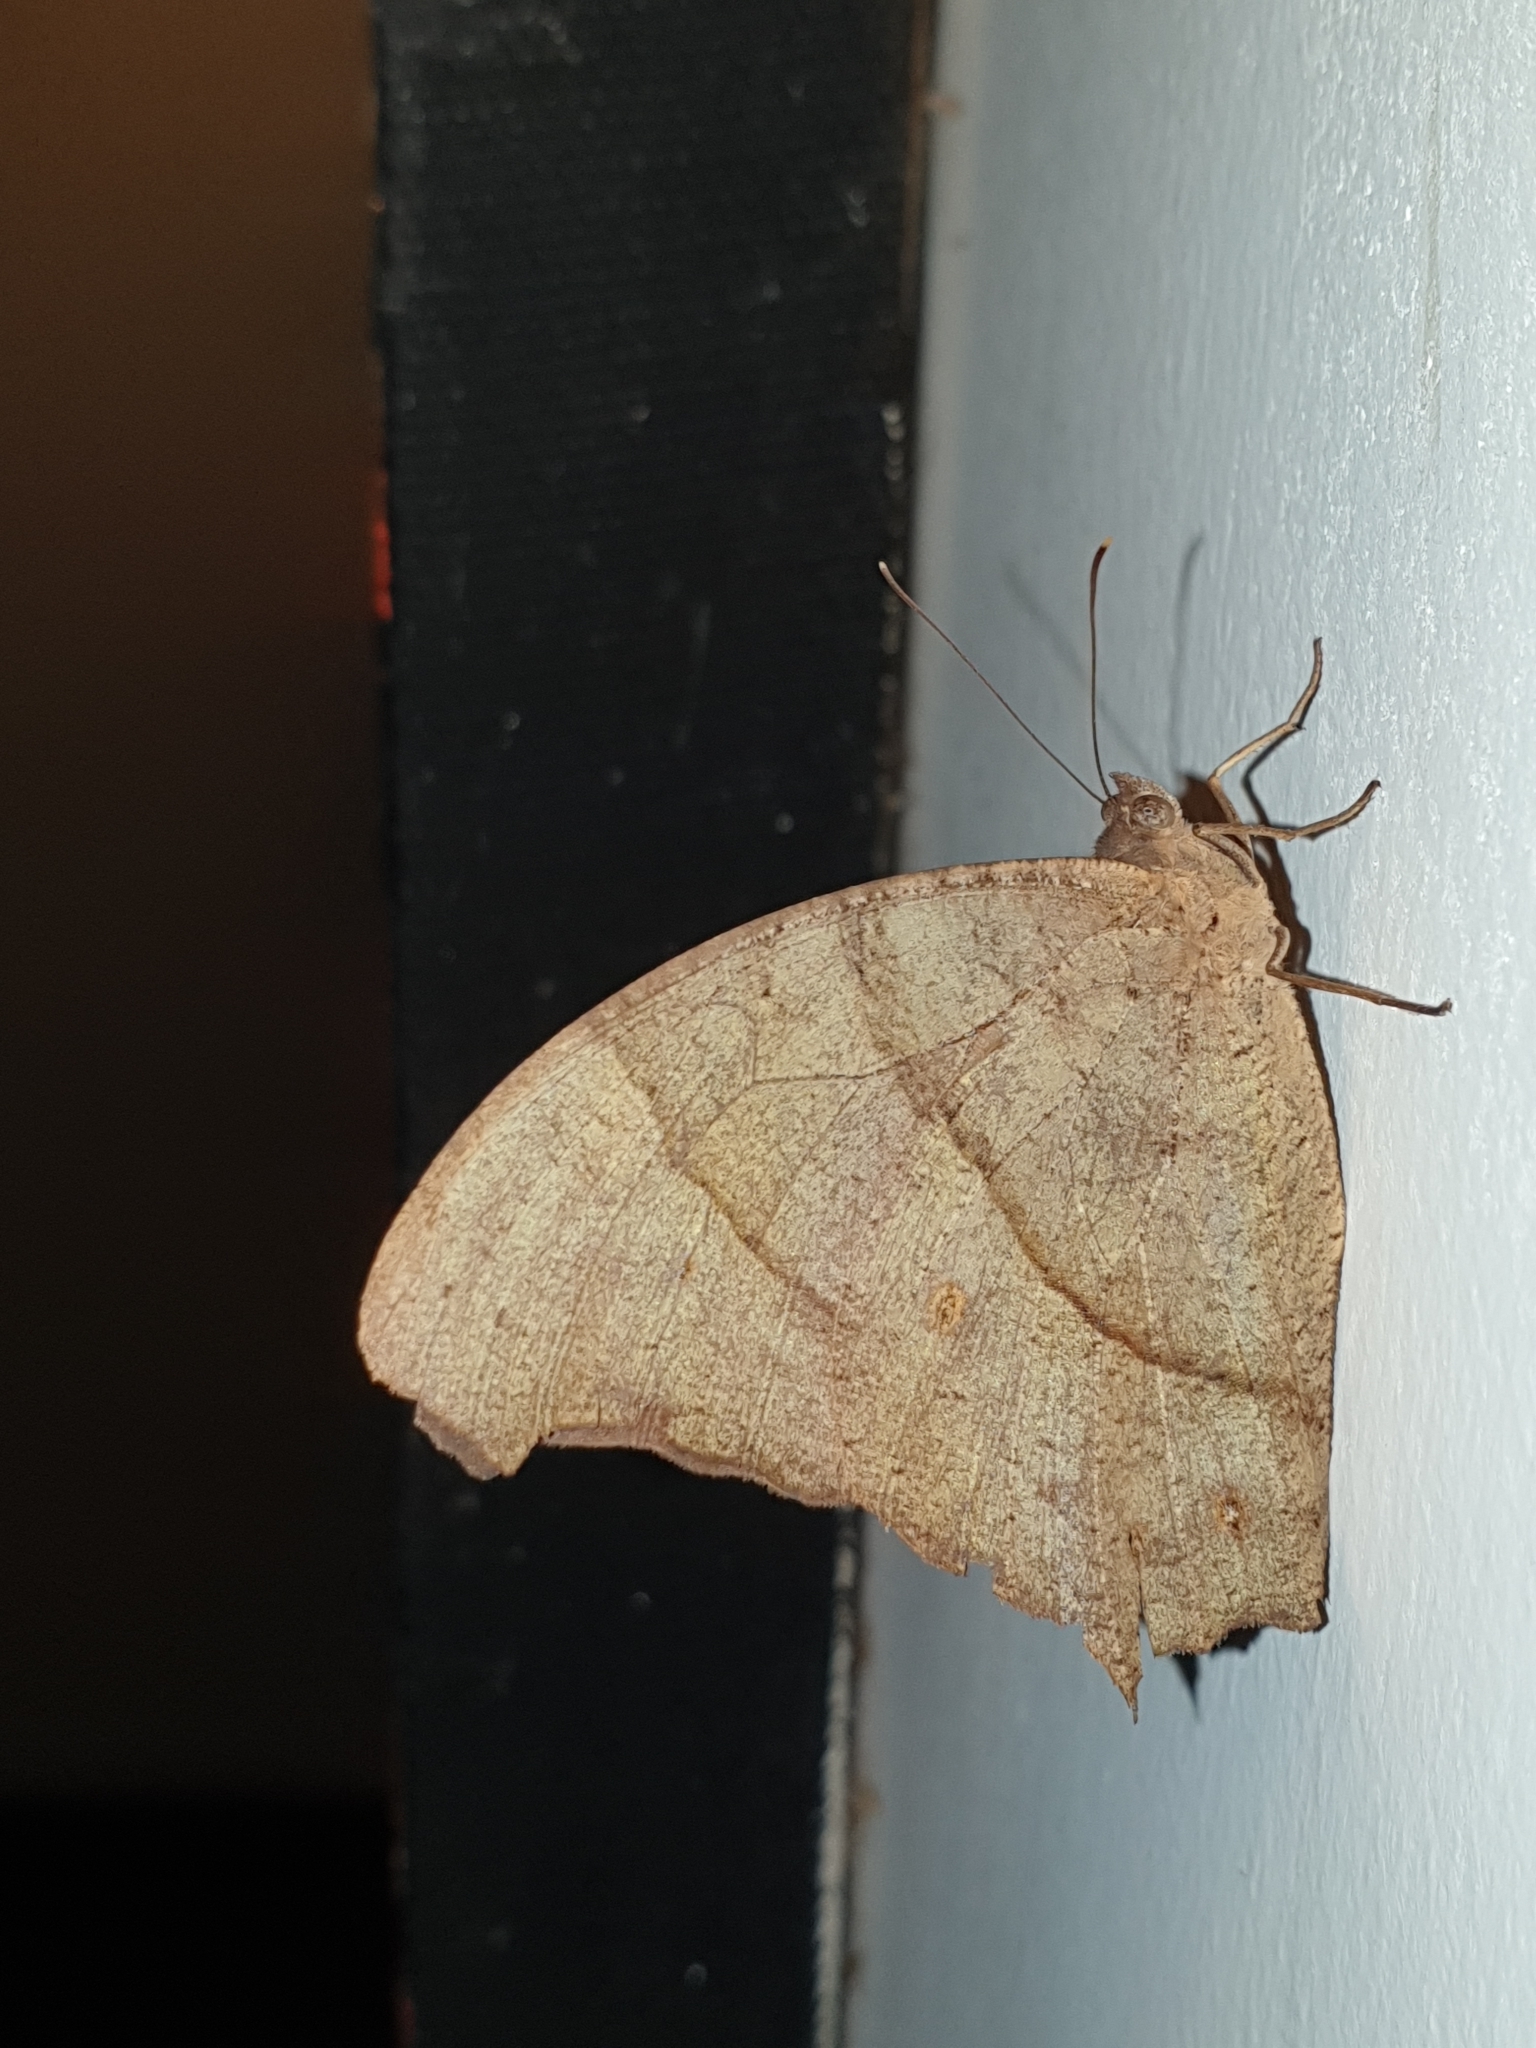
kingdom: Animalia
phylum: Arthropoda
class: Insecta
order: Lepidoptera
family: Nymphalidae
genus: Melanitis
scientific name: Melanitis leda
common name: Twilight brown
